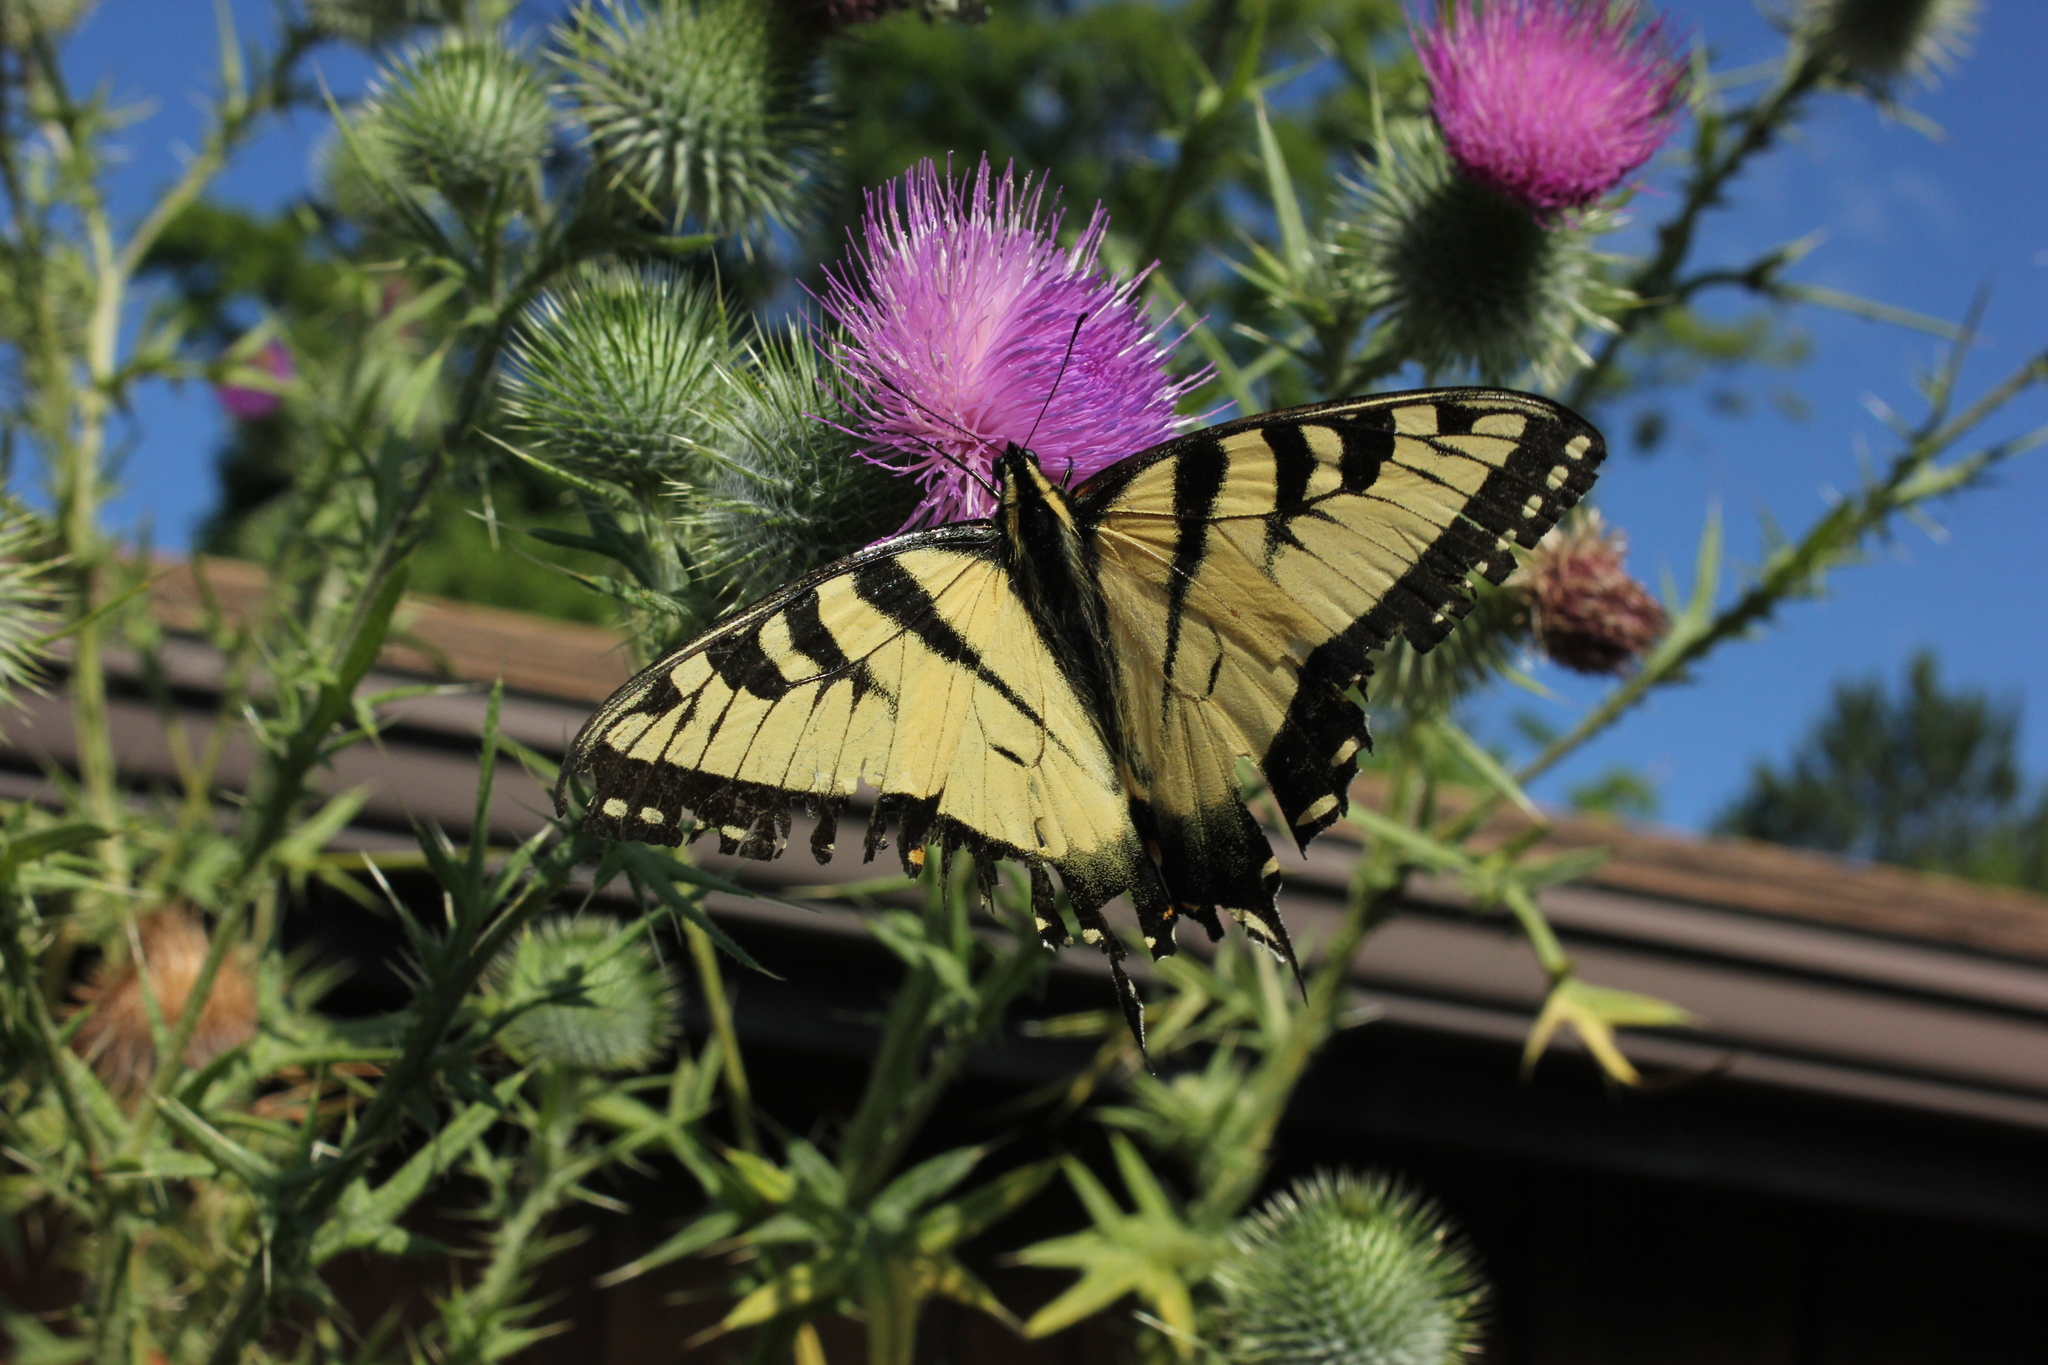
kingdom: Animalia
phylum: Arthropoda
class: Insecta
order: Lepidoptera
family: Papilionidae
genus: Papilio
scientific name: Papilio glaucus
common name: Tiger swallowtail
